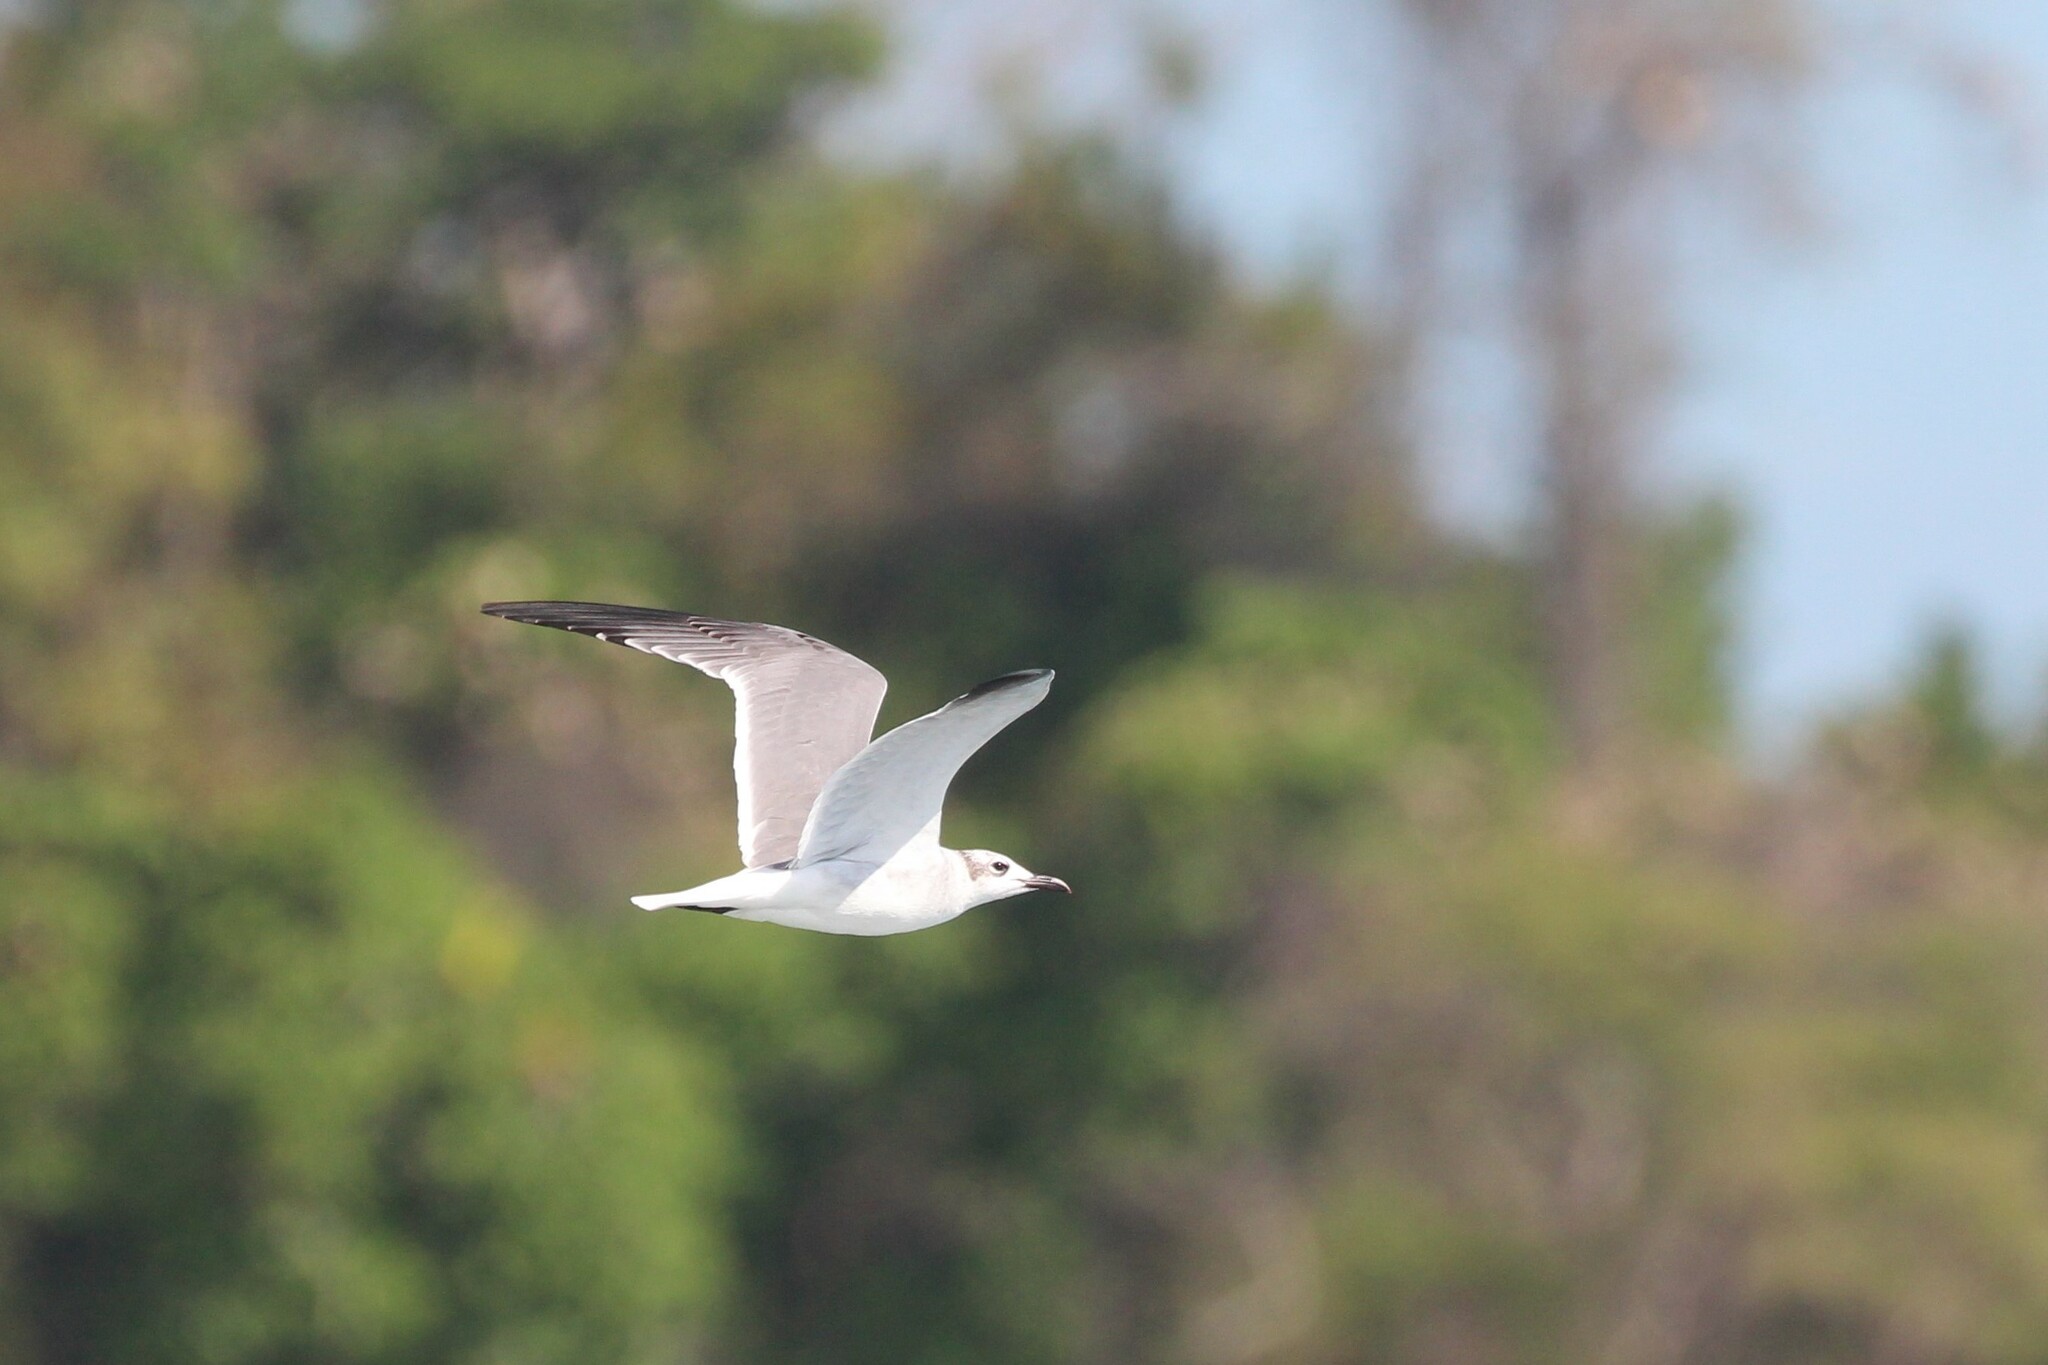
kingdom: Animalia
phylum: Chordata
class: Aves
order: Charadriiformes
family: Laridae
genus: Leucophaeus
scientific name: Leucophaeus atricilla
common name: Laughing gull
